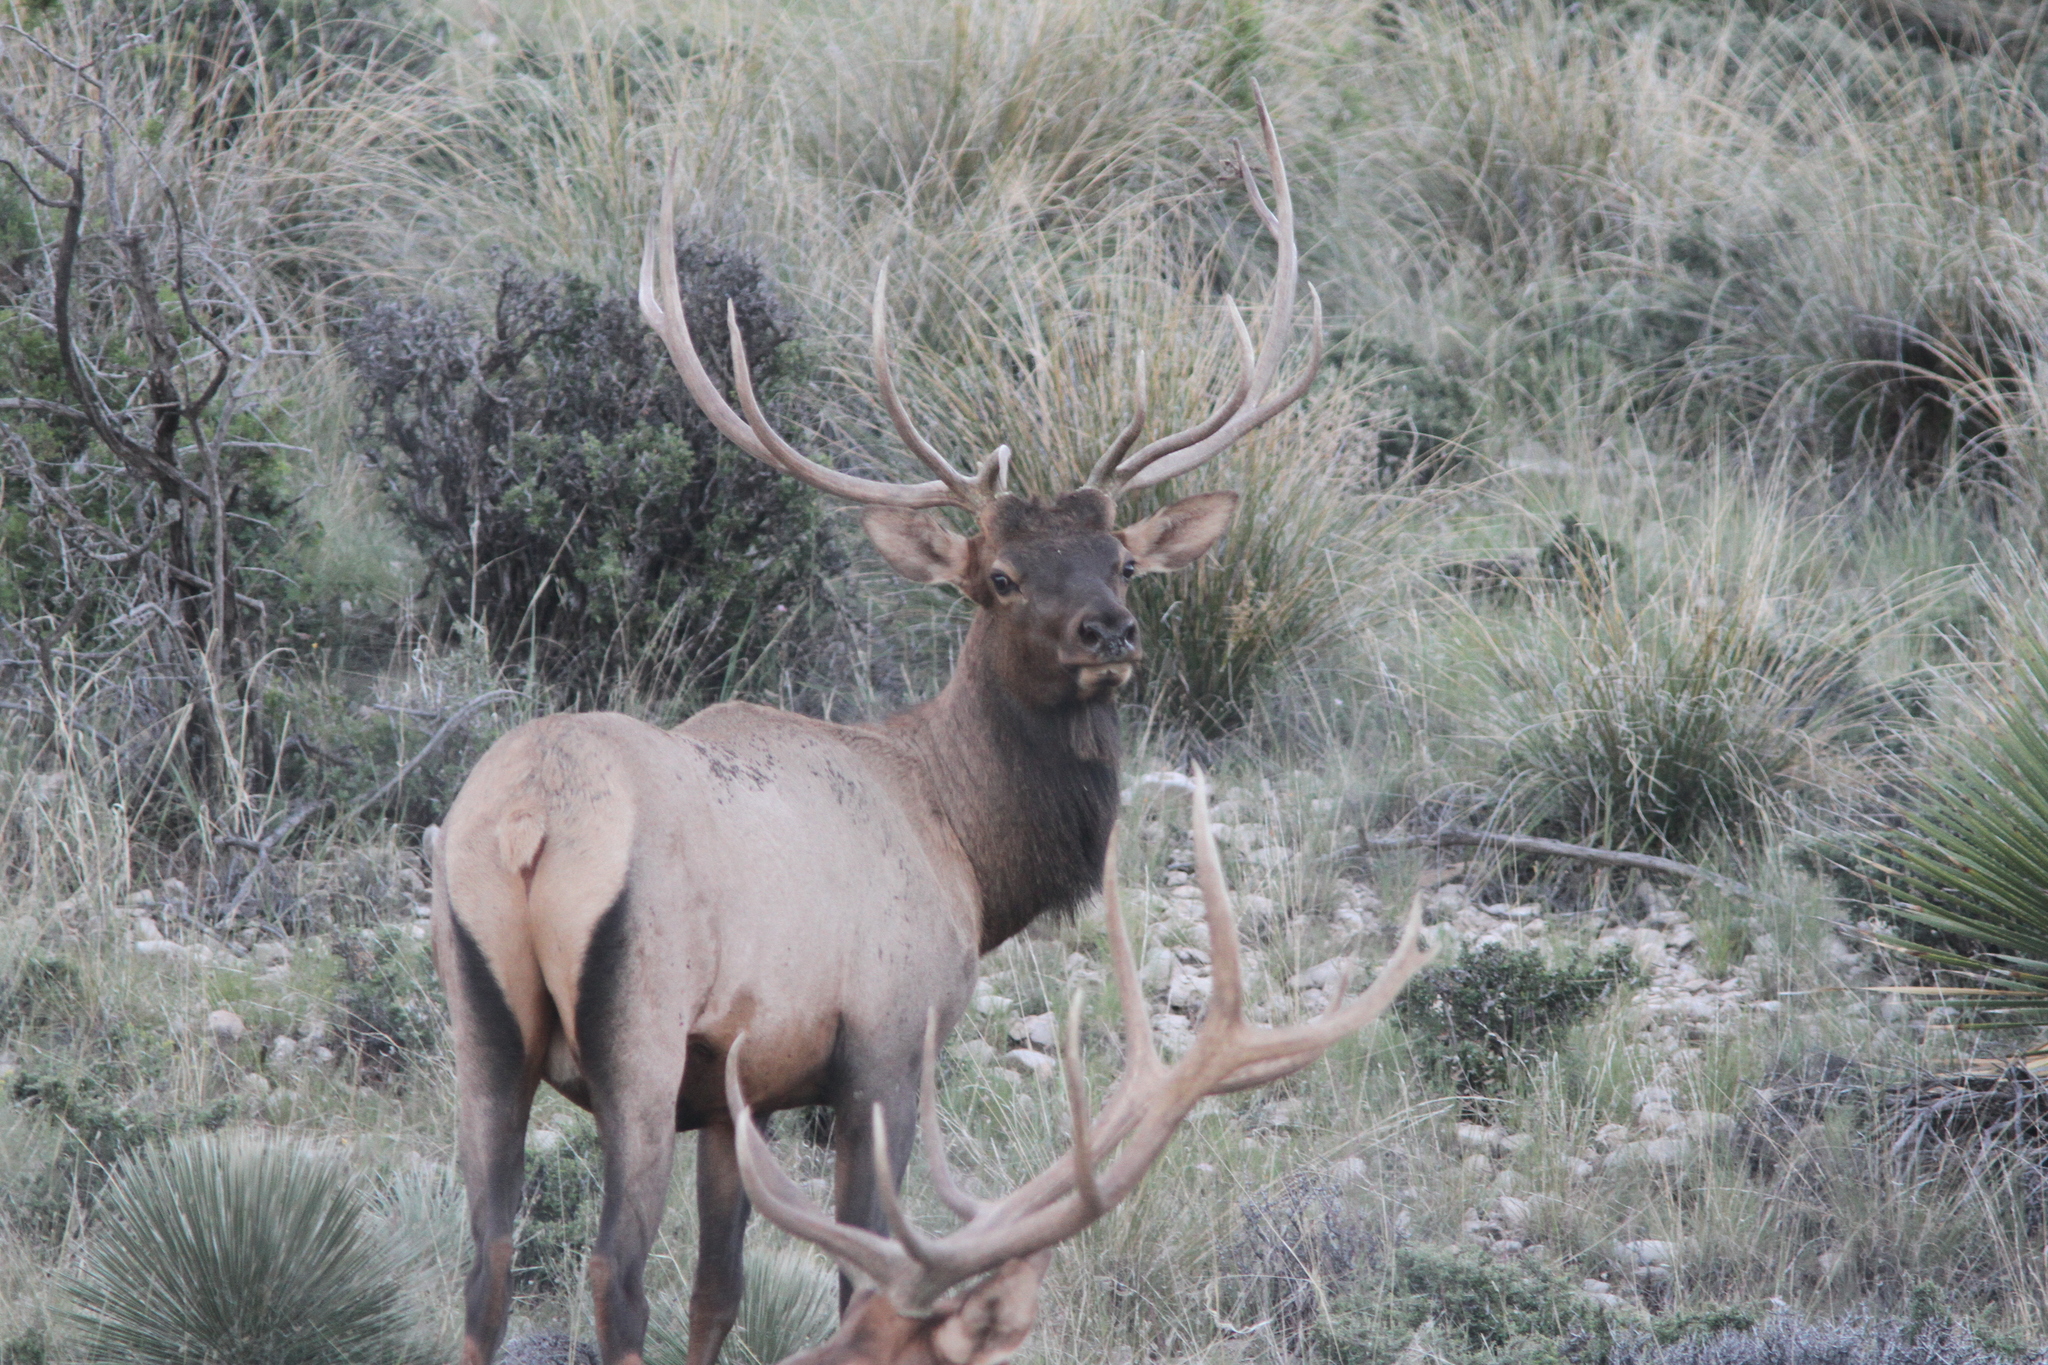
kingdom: Animalia
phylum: Chordata
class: Mammalia
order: Artiodactyla
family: Cervidae
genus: Cervus
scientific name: Cervus elaphus
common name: Red deer
